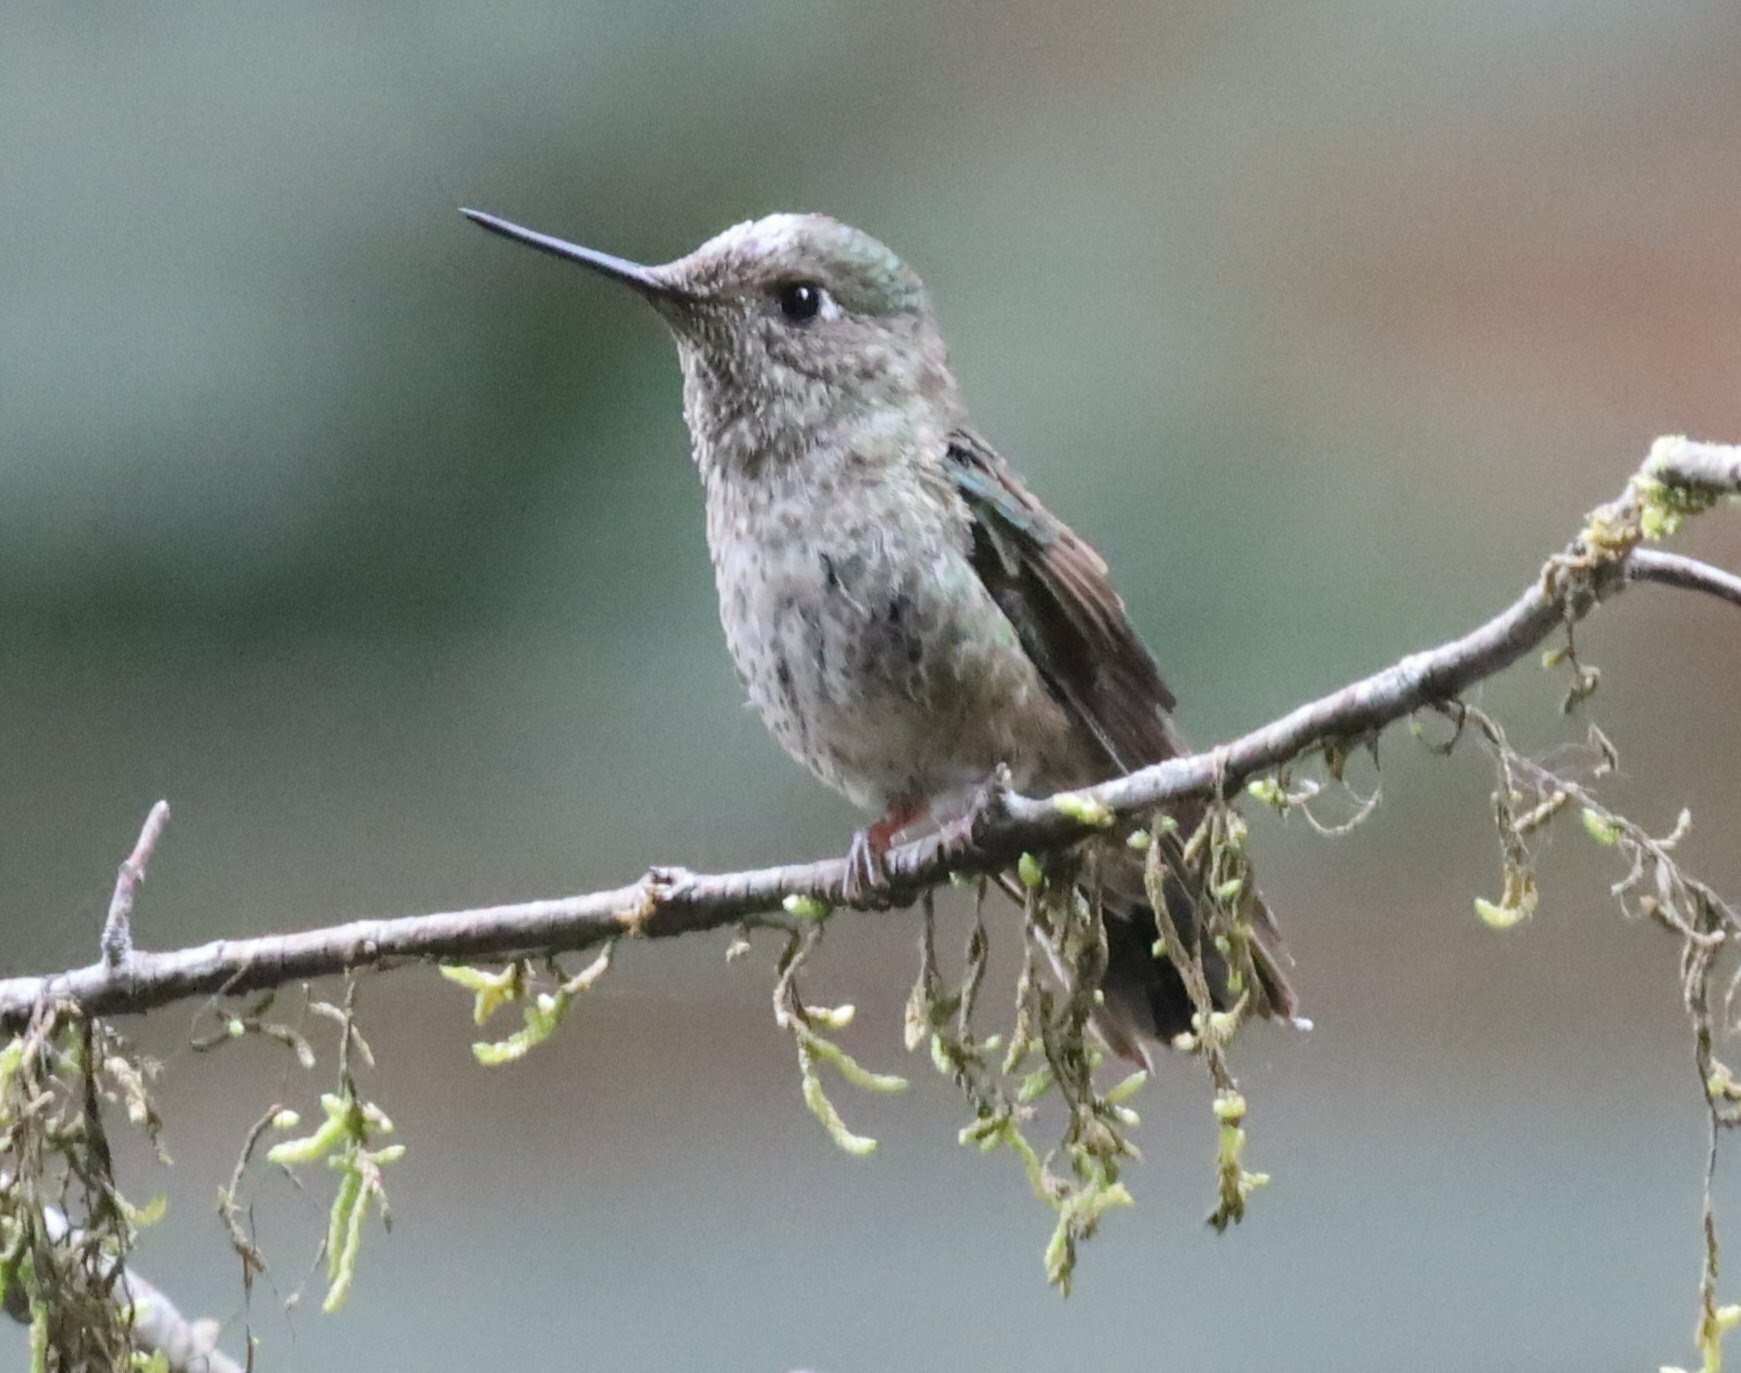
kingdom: Animalia
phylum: Chordata
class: Aves
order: Apodiformes
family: Trochilidae
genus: Sephanoides
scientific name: Sephanoides sephaniodes
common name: Green-backed firecrown
